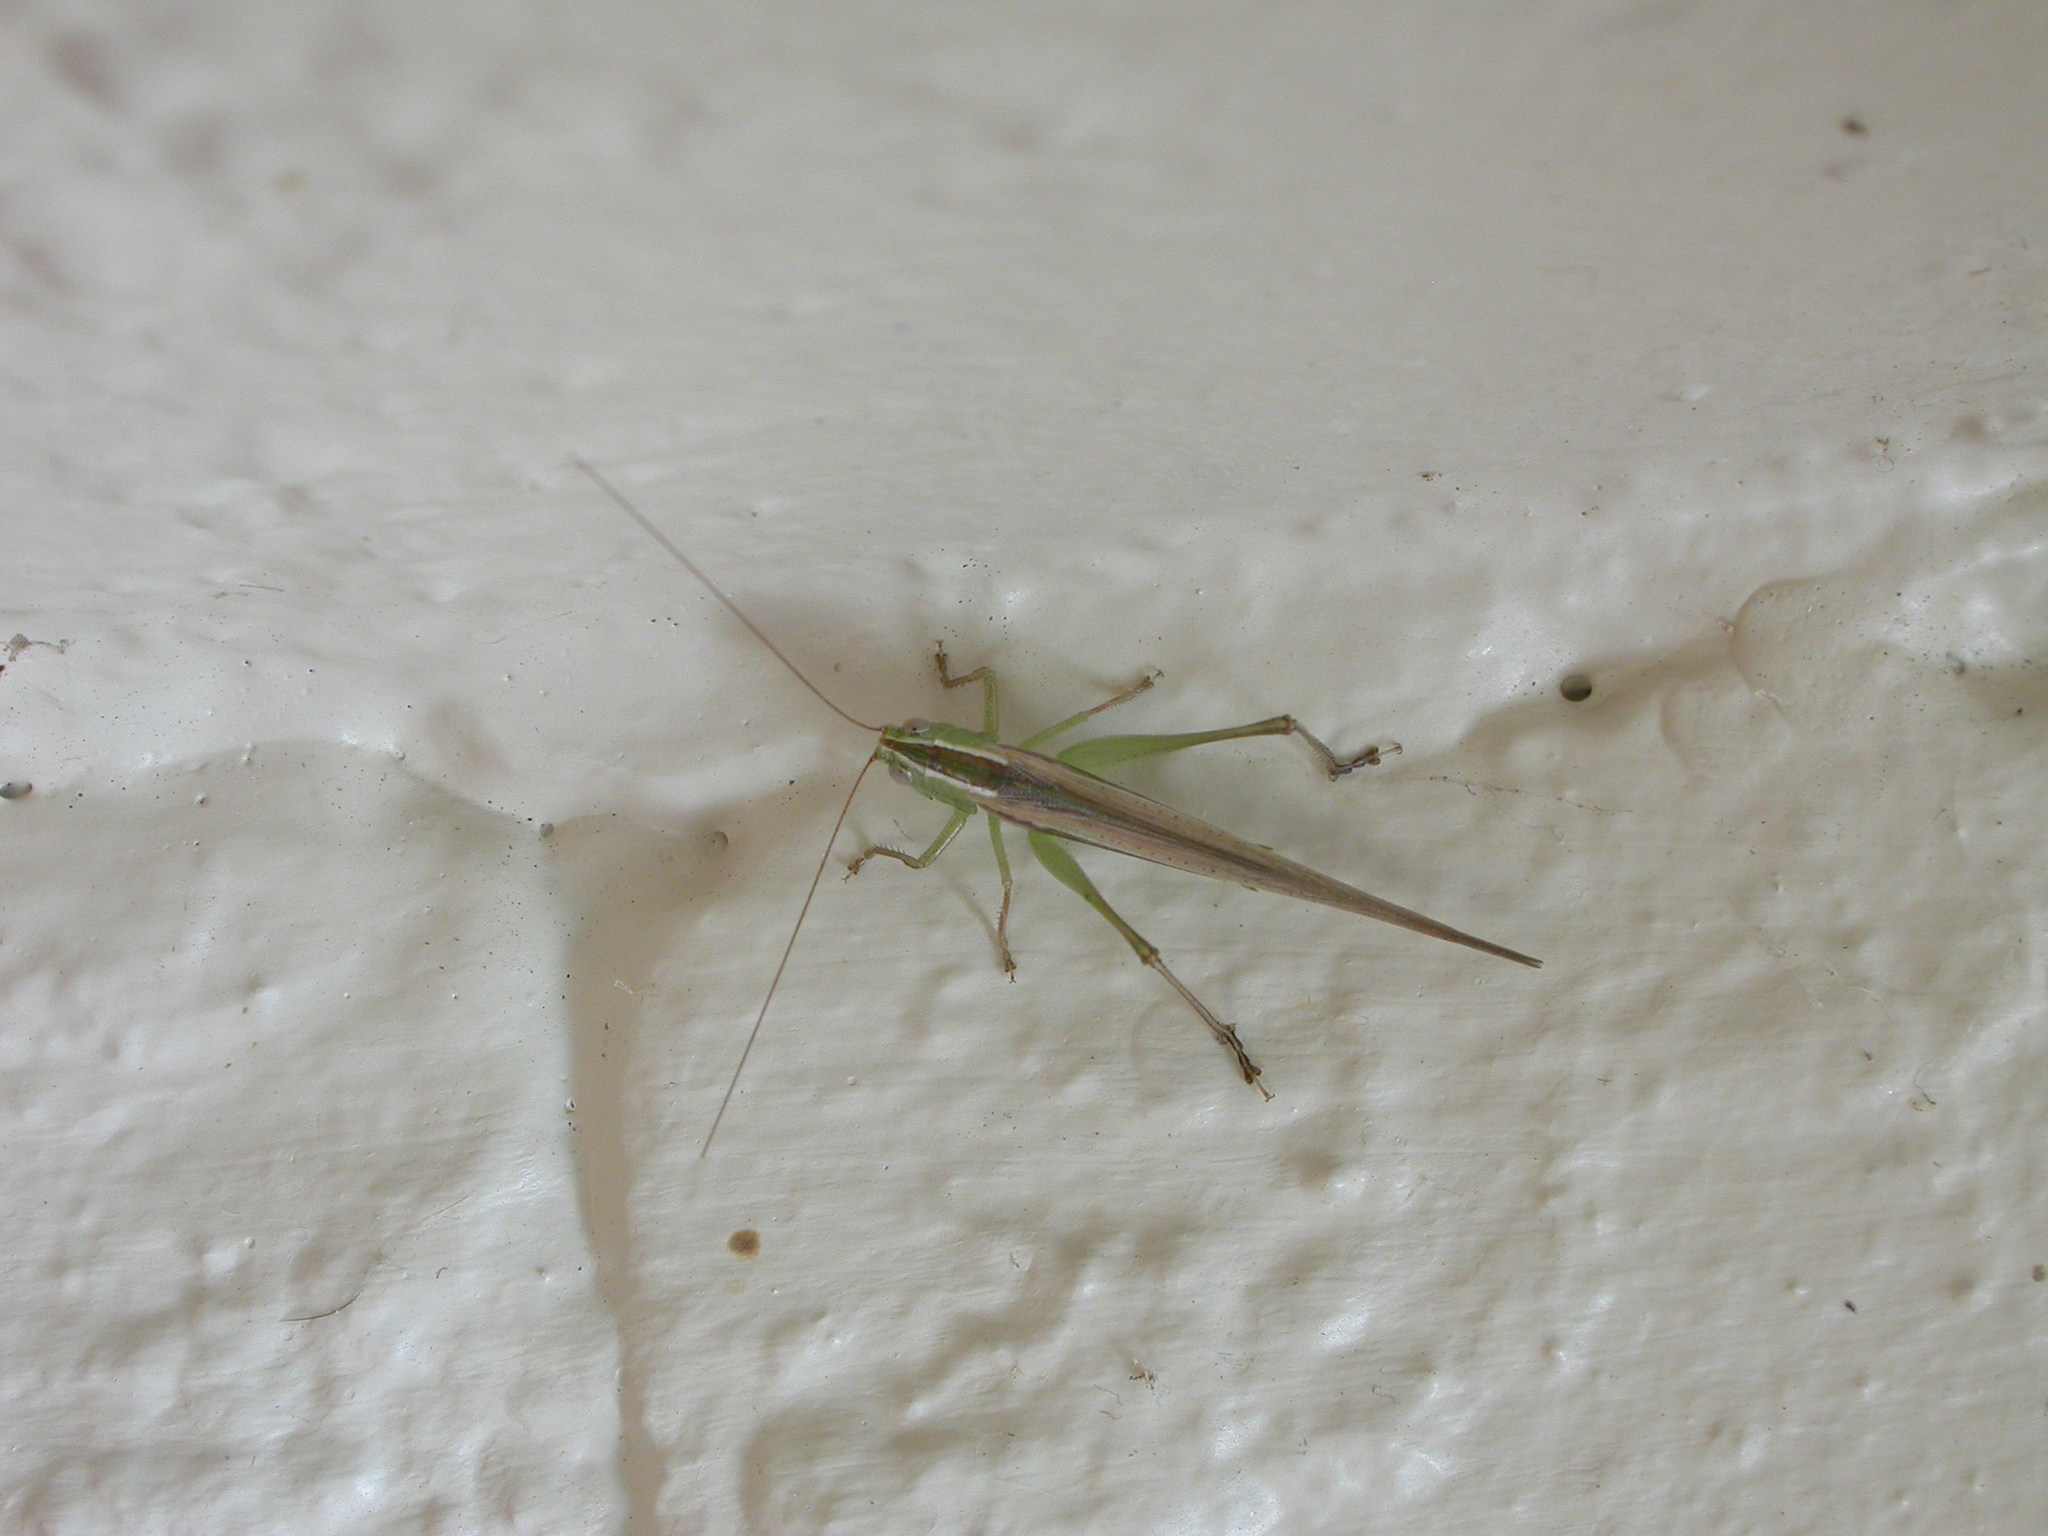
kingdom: Animalia
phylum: Arthropoda
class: Insecta
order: Orthoptera
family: Tettigoniidae
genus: Conocephalus
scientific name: Conocephalus upoluensis
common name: Upolu meadow katydid
